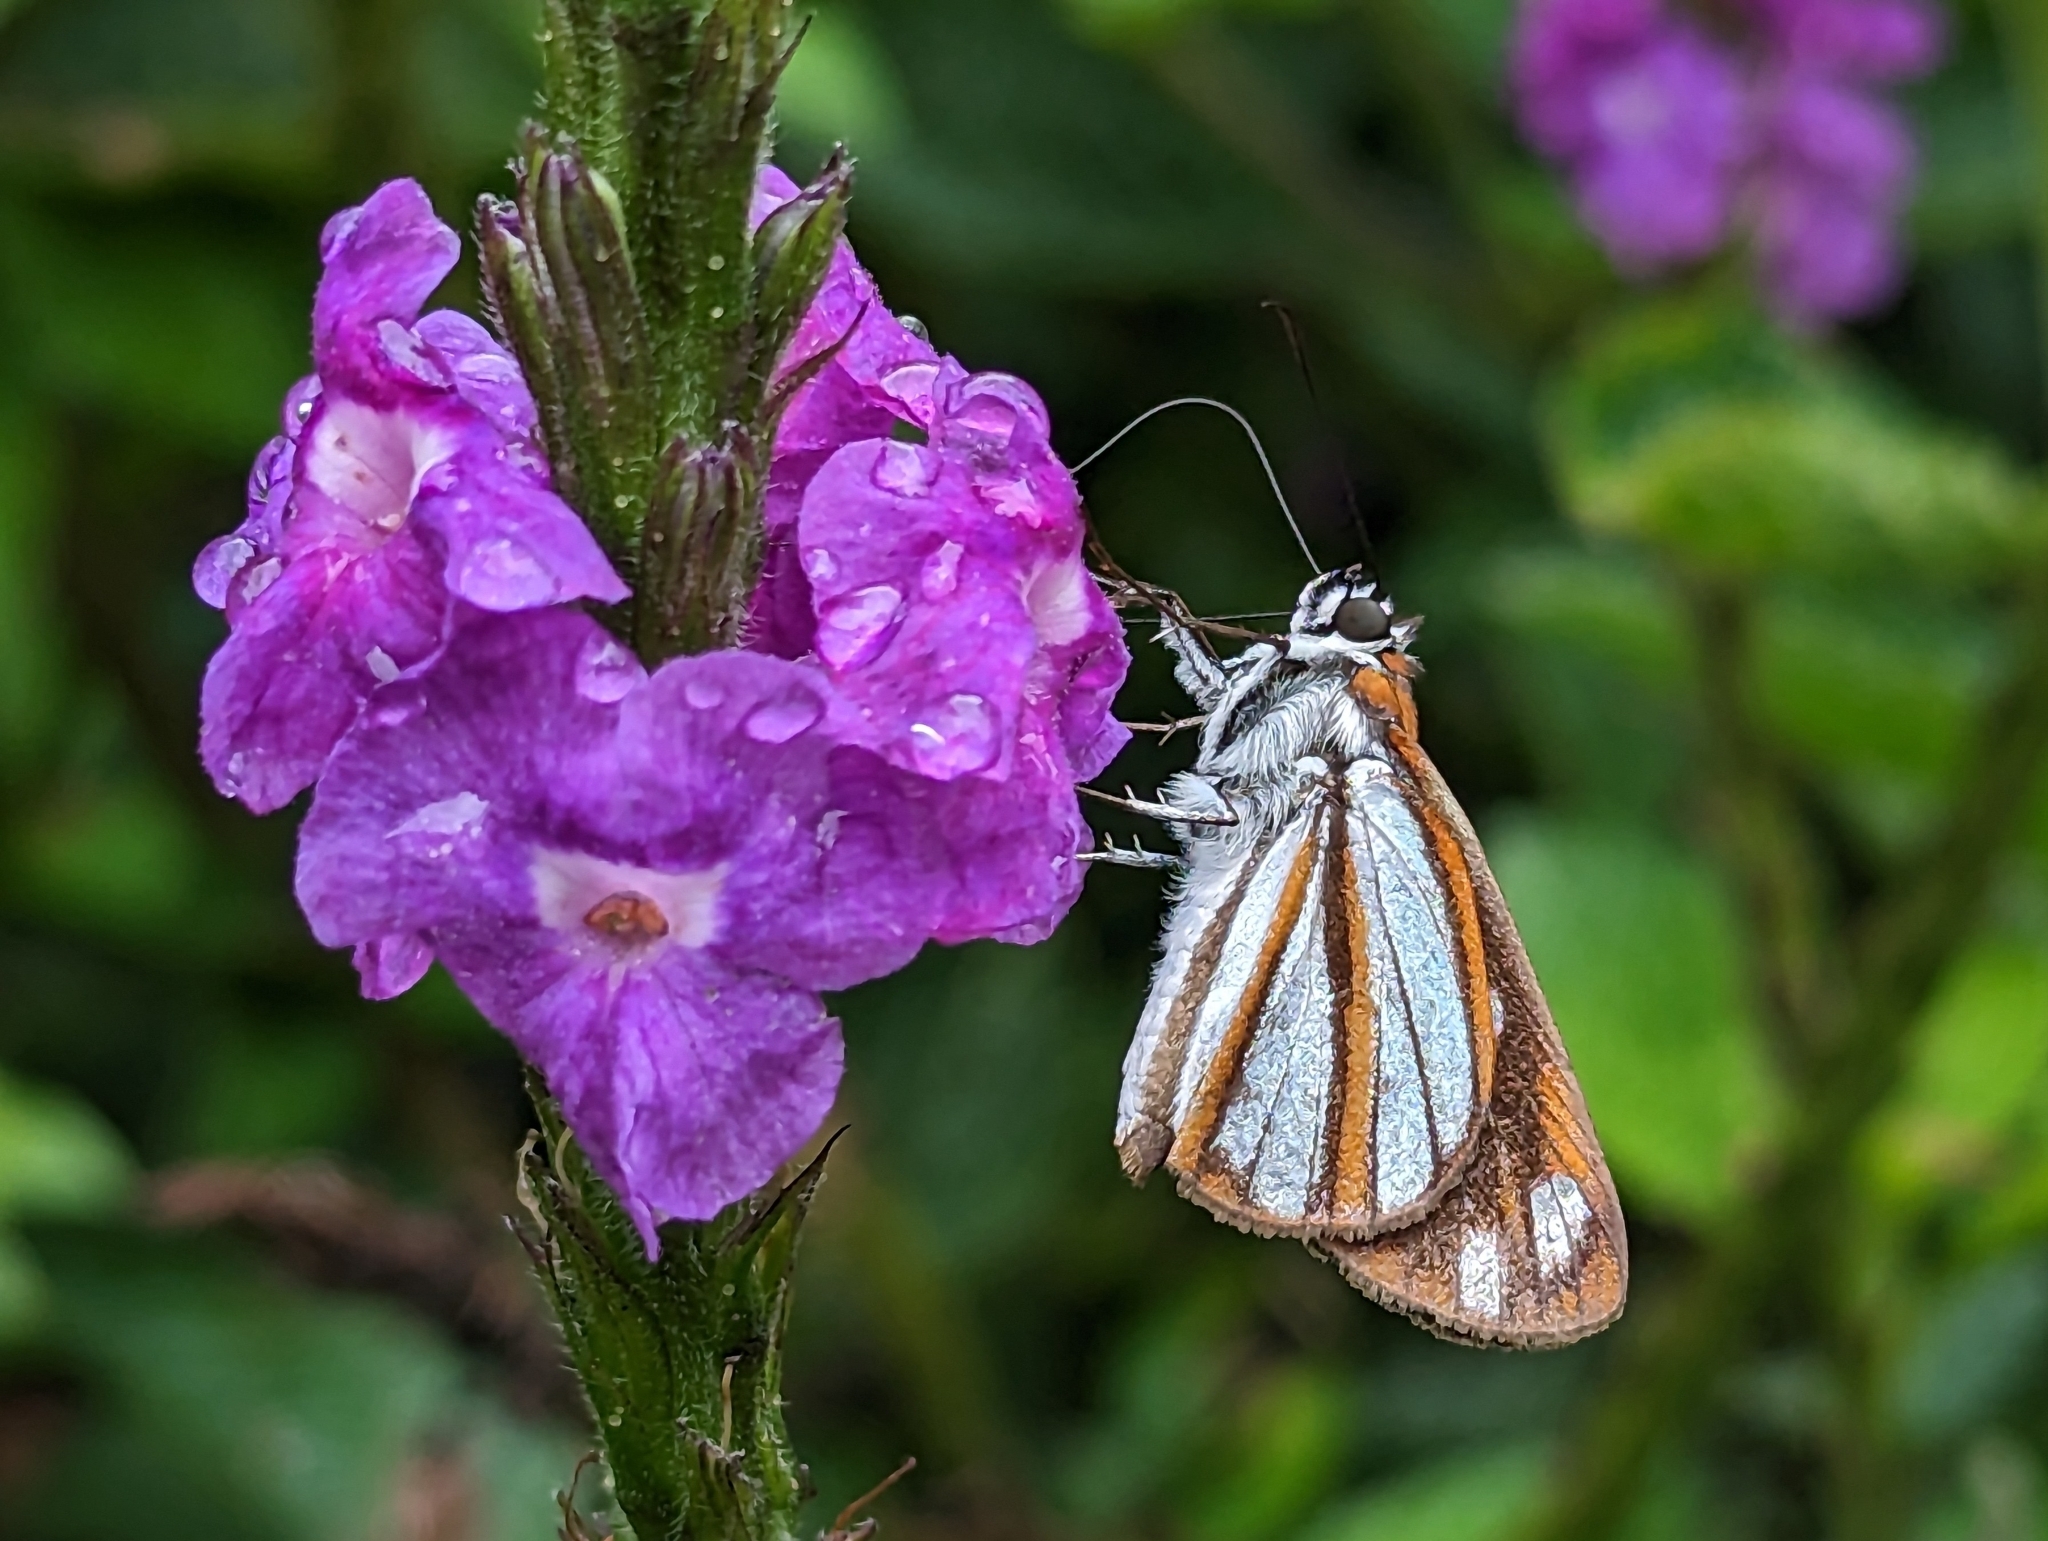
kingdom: Animalia
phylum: Arthropoda
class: Insecta
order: Lepidoptera
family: Hesperiidae
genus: Corra
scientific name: Corra
